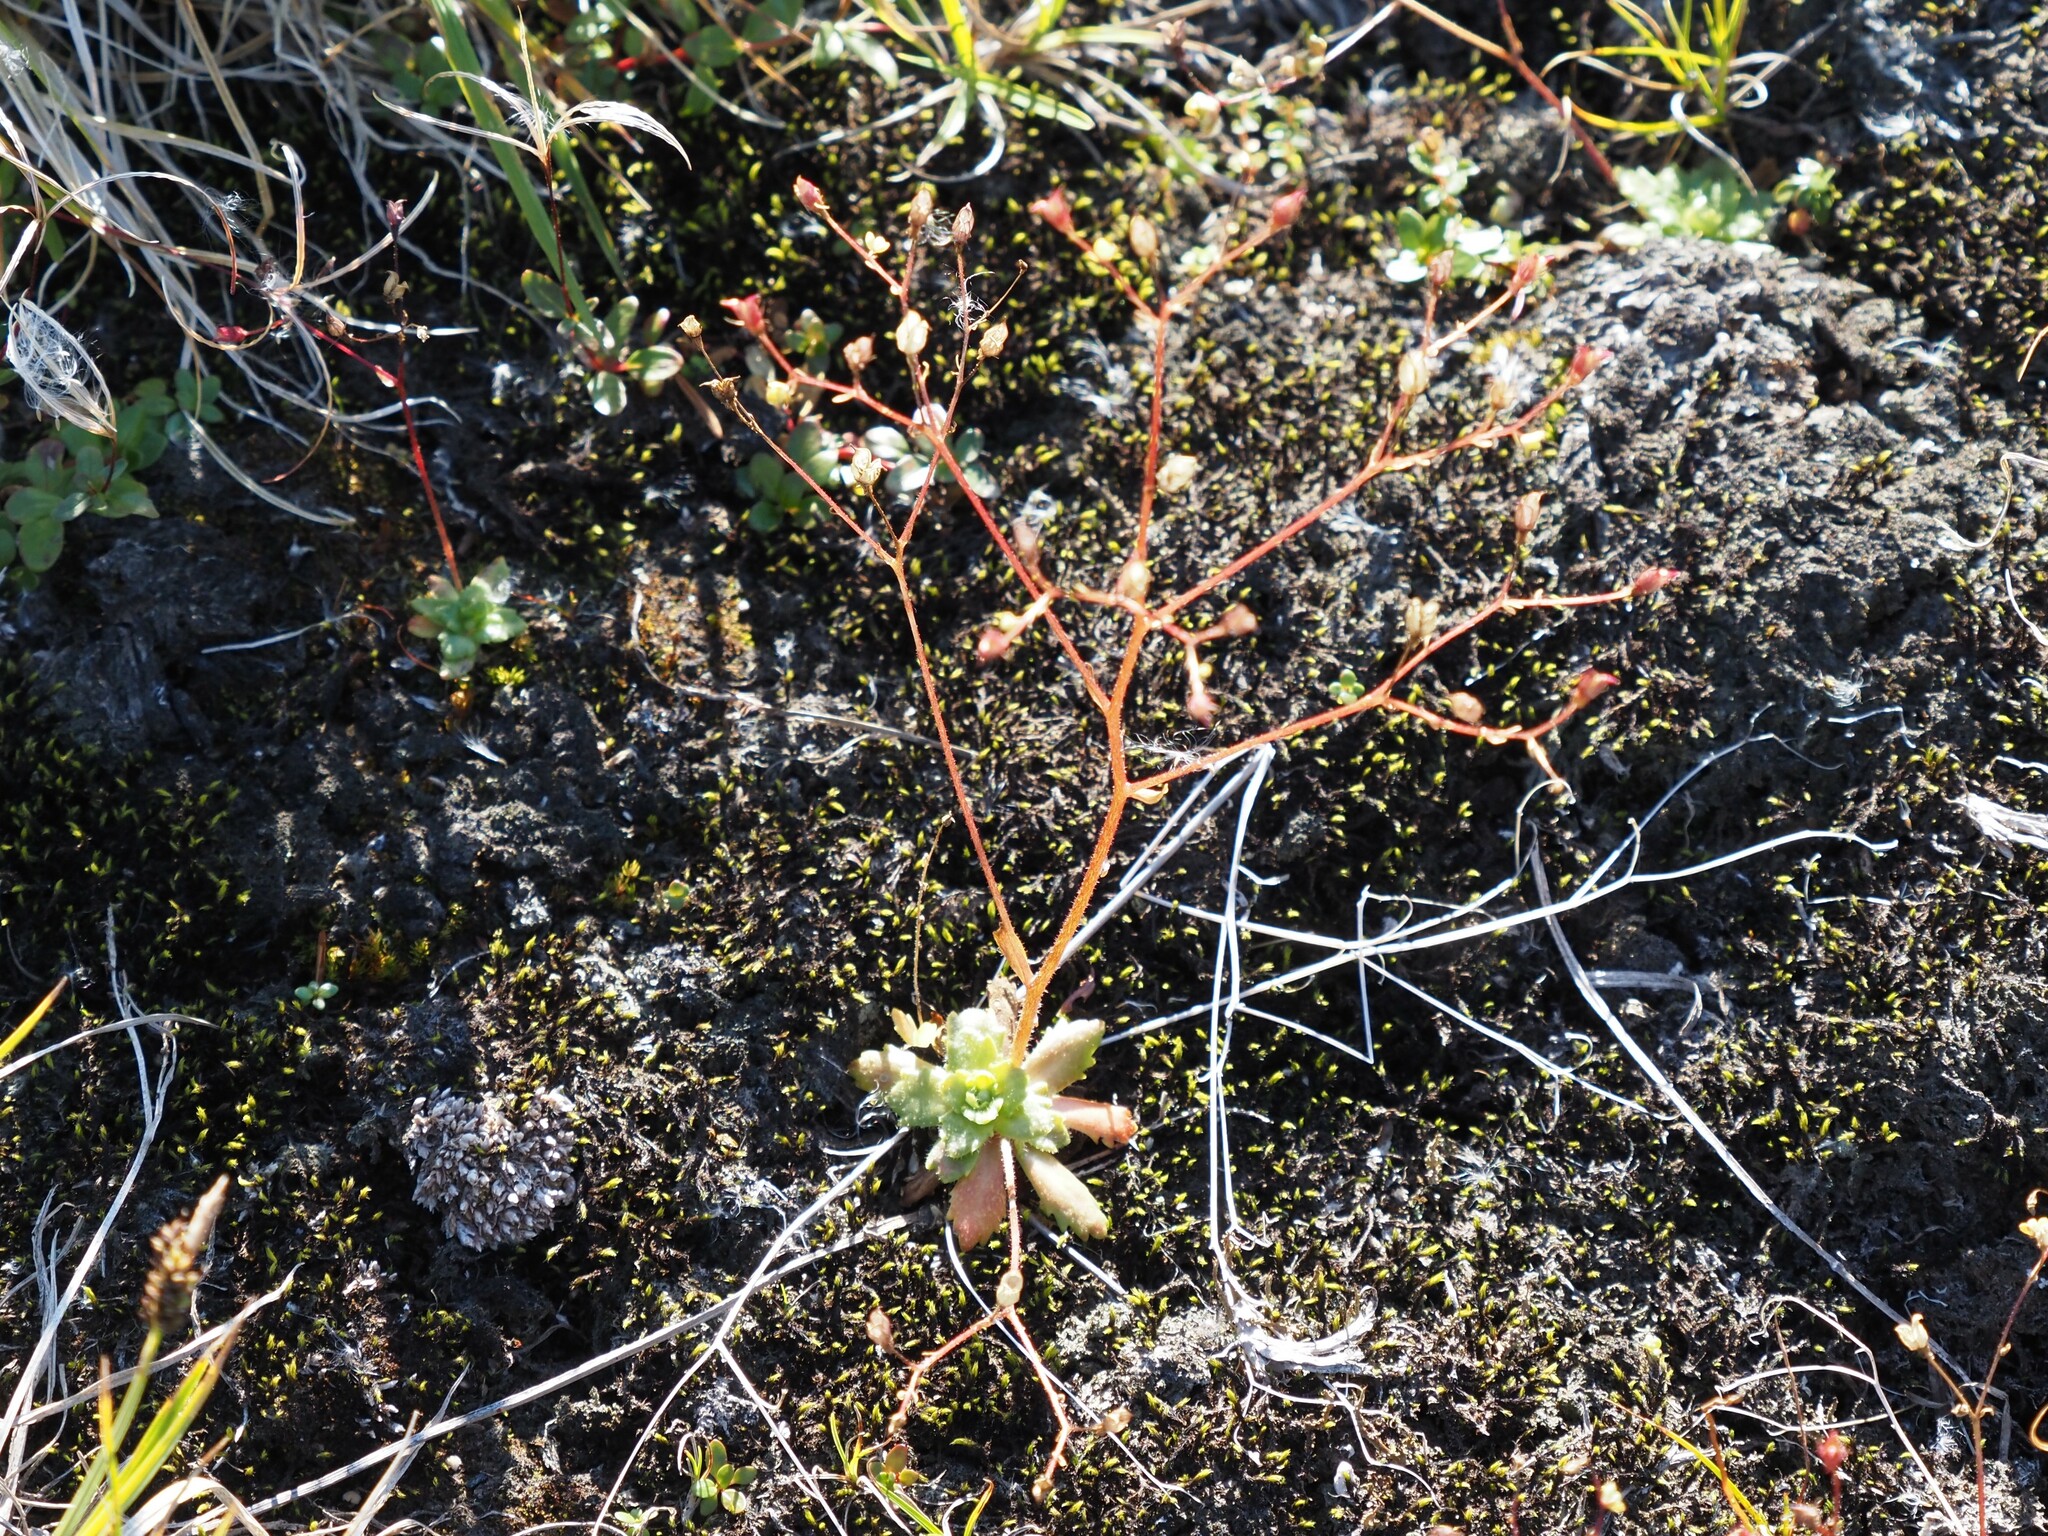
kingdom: Plantae
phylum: Tracheophyta
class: Magnoliopsida
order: Saxifragales
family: Saxifragaceae
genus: Micranthes
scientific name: Micranthes ferruginea
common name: Rusty saxifrage
